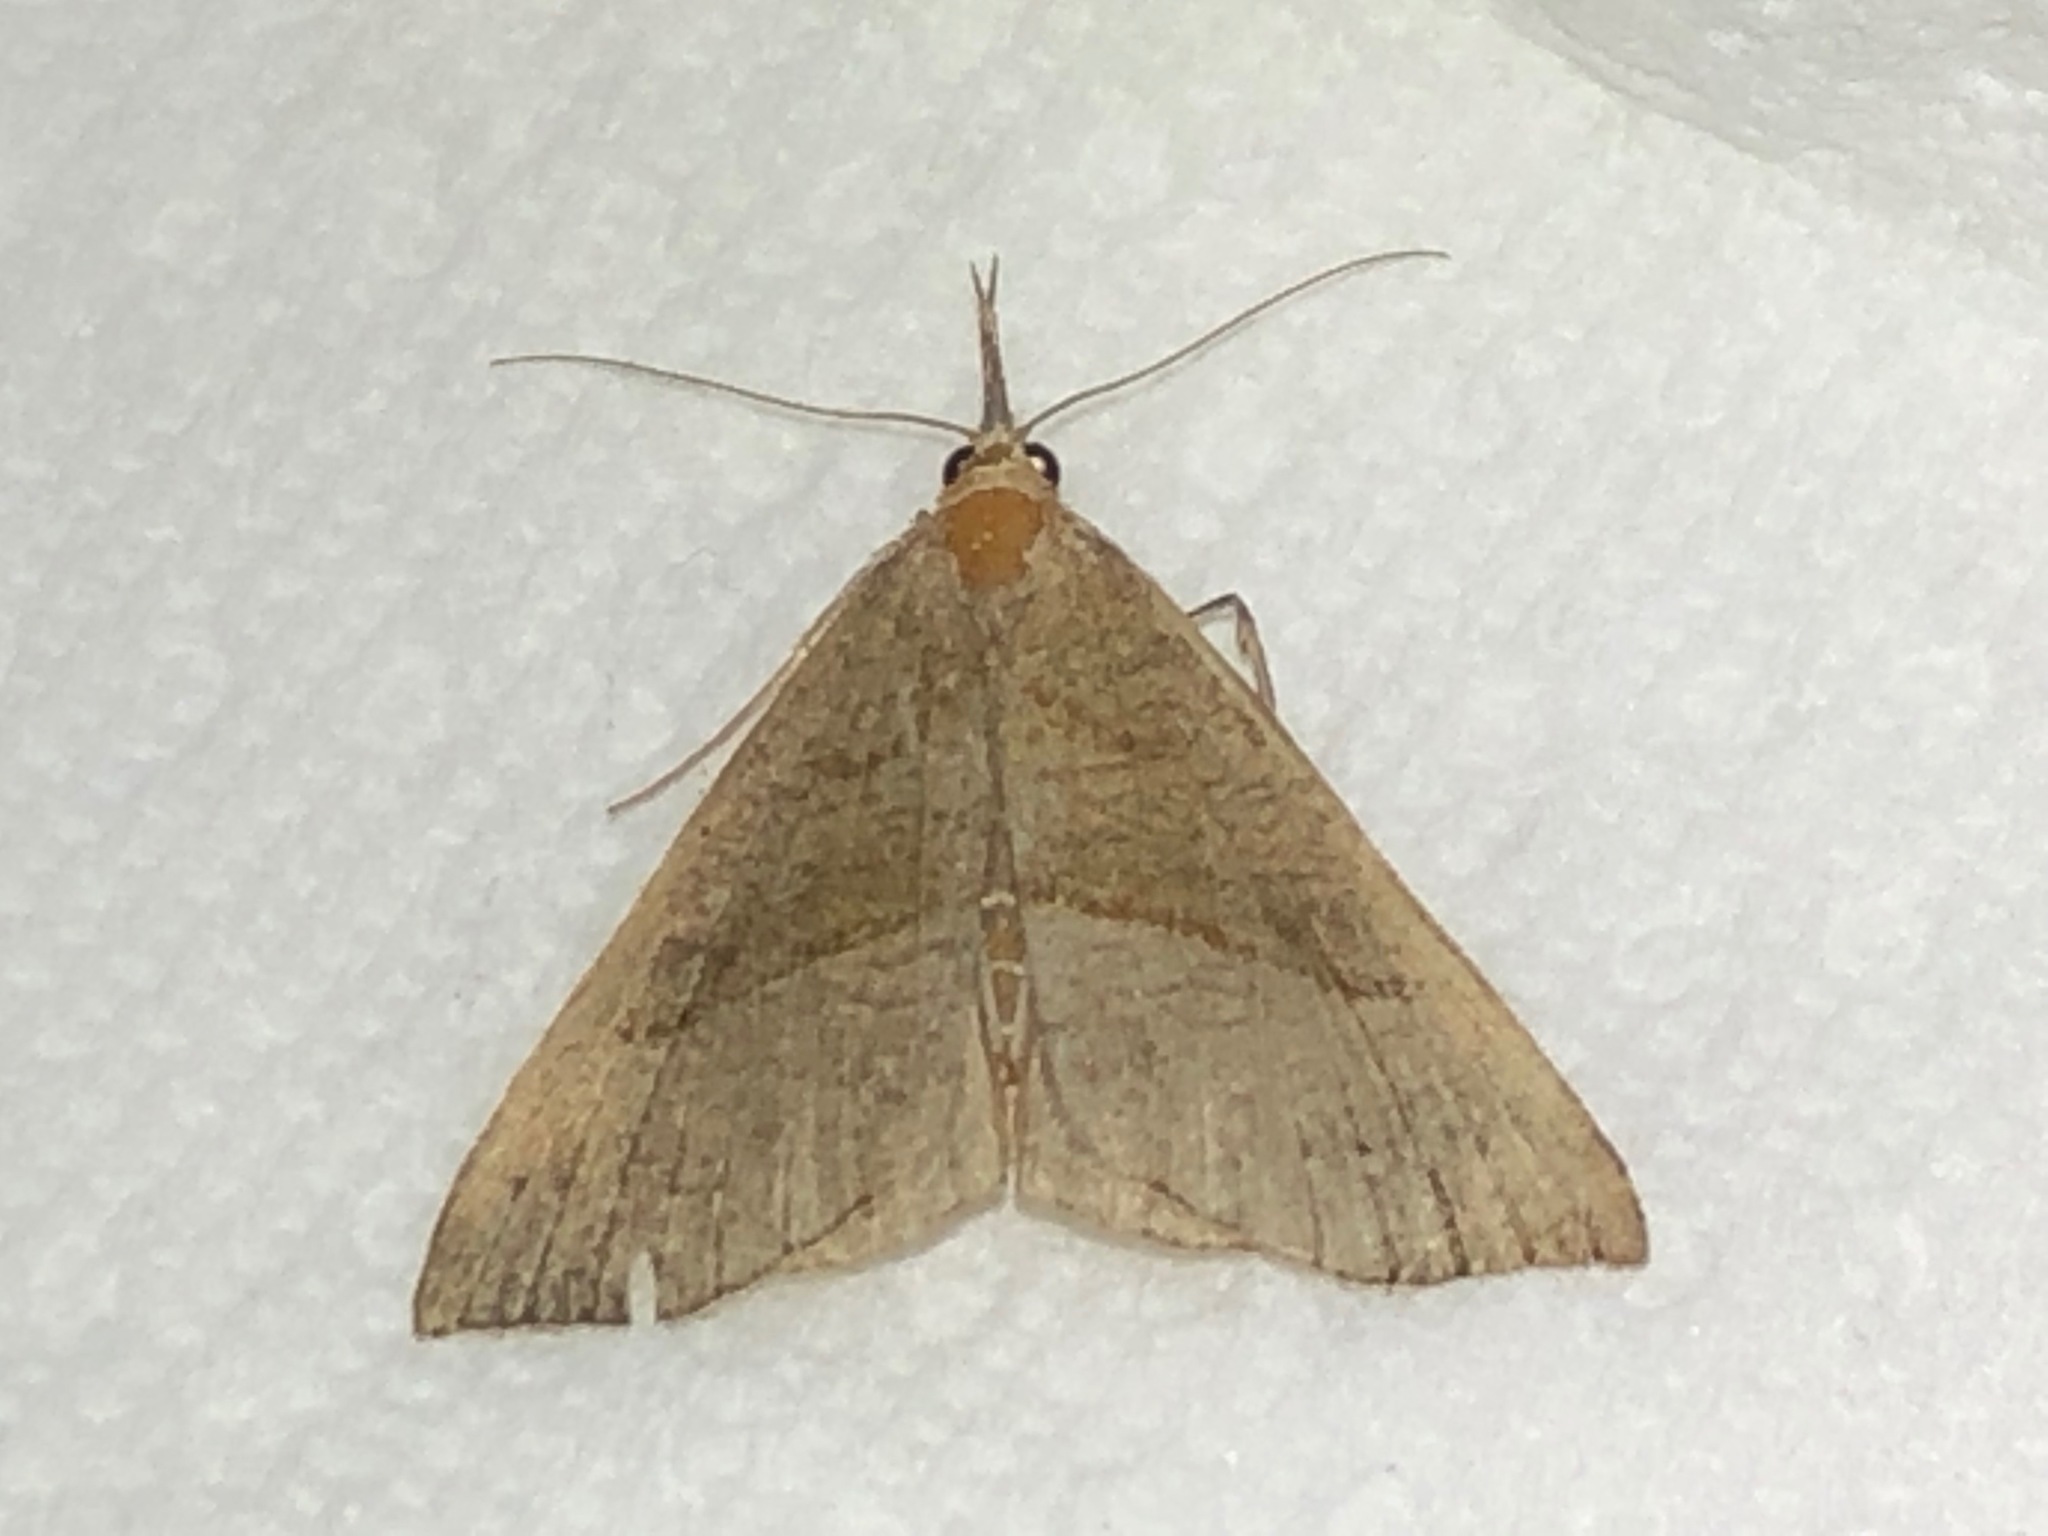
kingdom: Animalia
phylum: Arthropoda
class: Insecta
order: Lepidoptera
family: Erebidae
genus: Hypena
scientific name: Hypena proboscidalis
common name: Snout
